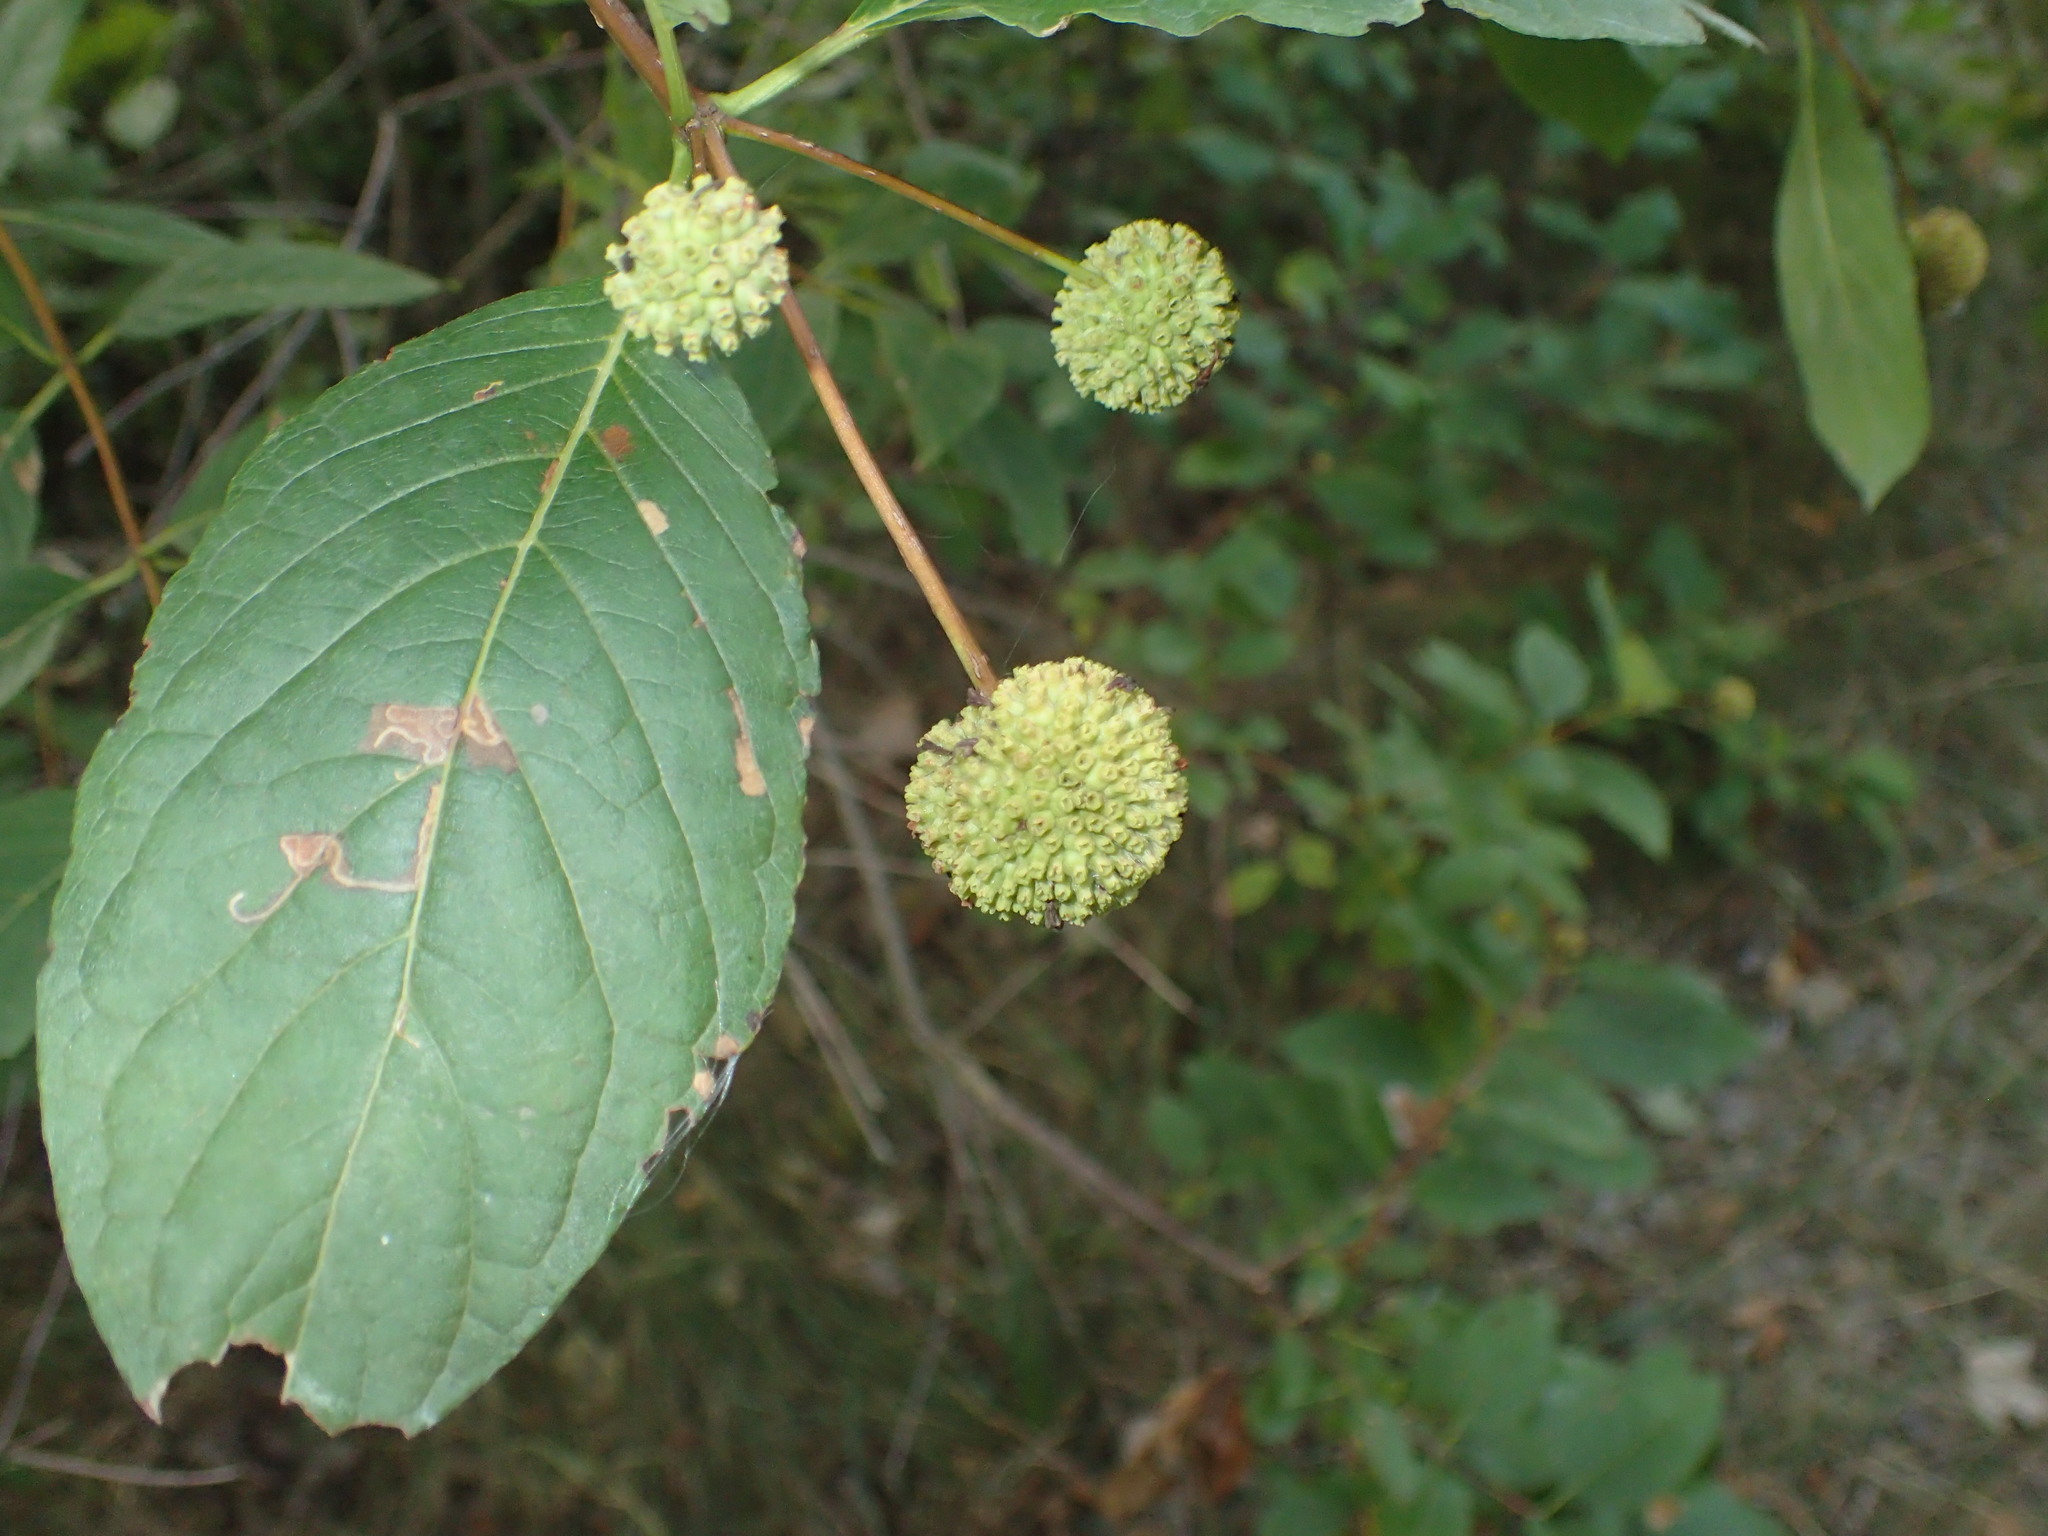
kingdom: Plantae
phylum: Tracheophyta
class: Magnoliopsida
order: Gentianales
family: Rubiaceae
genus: Cephalanthus
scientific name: Cephalanthus occidentalis
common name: Button-willow
